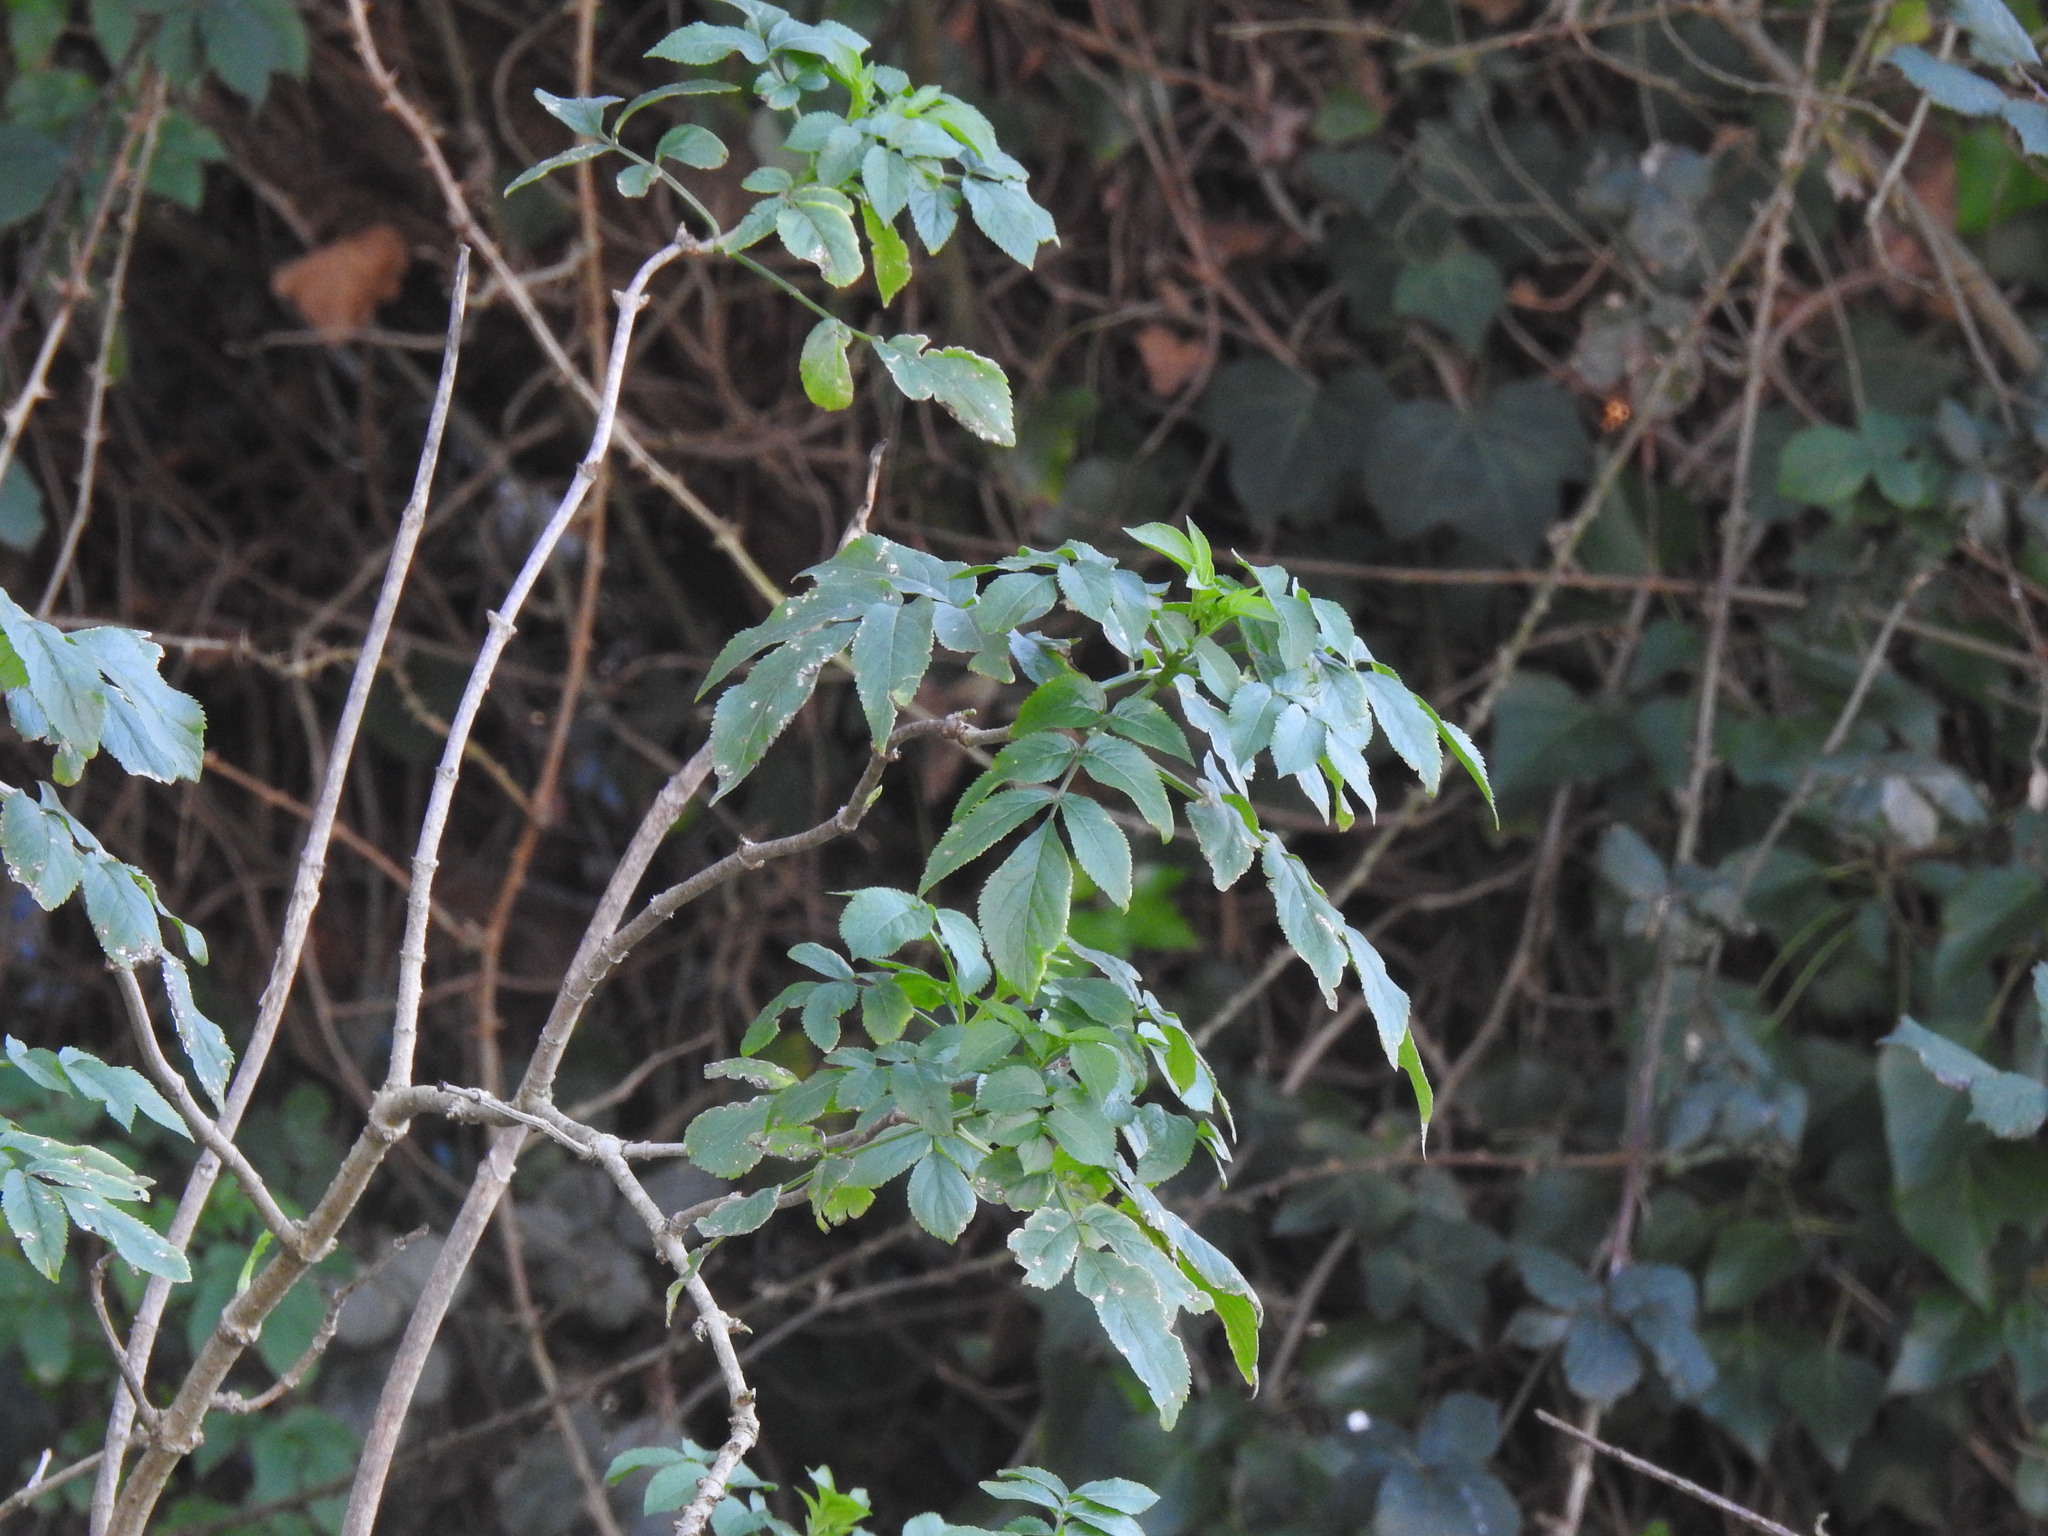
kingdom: Plantae
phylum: Tracheophyta
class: Magnoliopsida
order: Dipsacales
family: Viburnaceae
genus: Sambucus
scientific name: Sambucus nigra
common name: Elder
